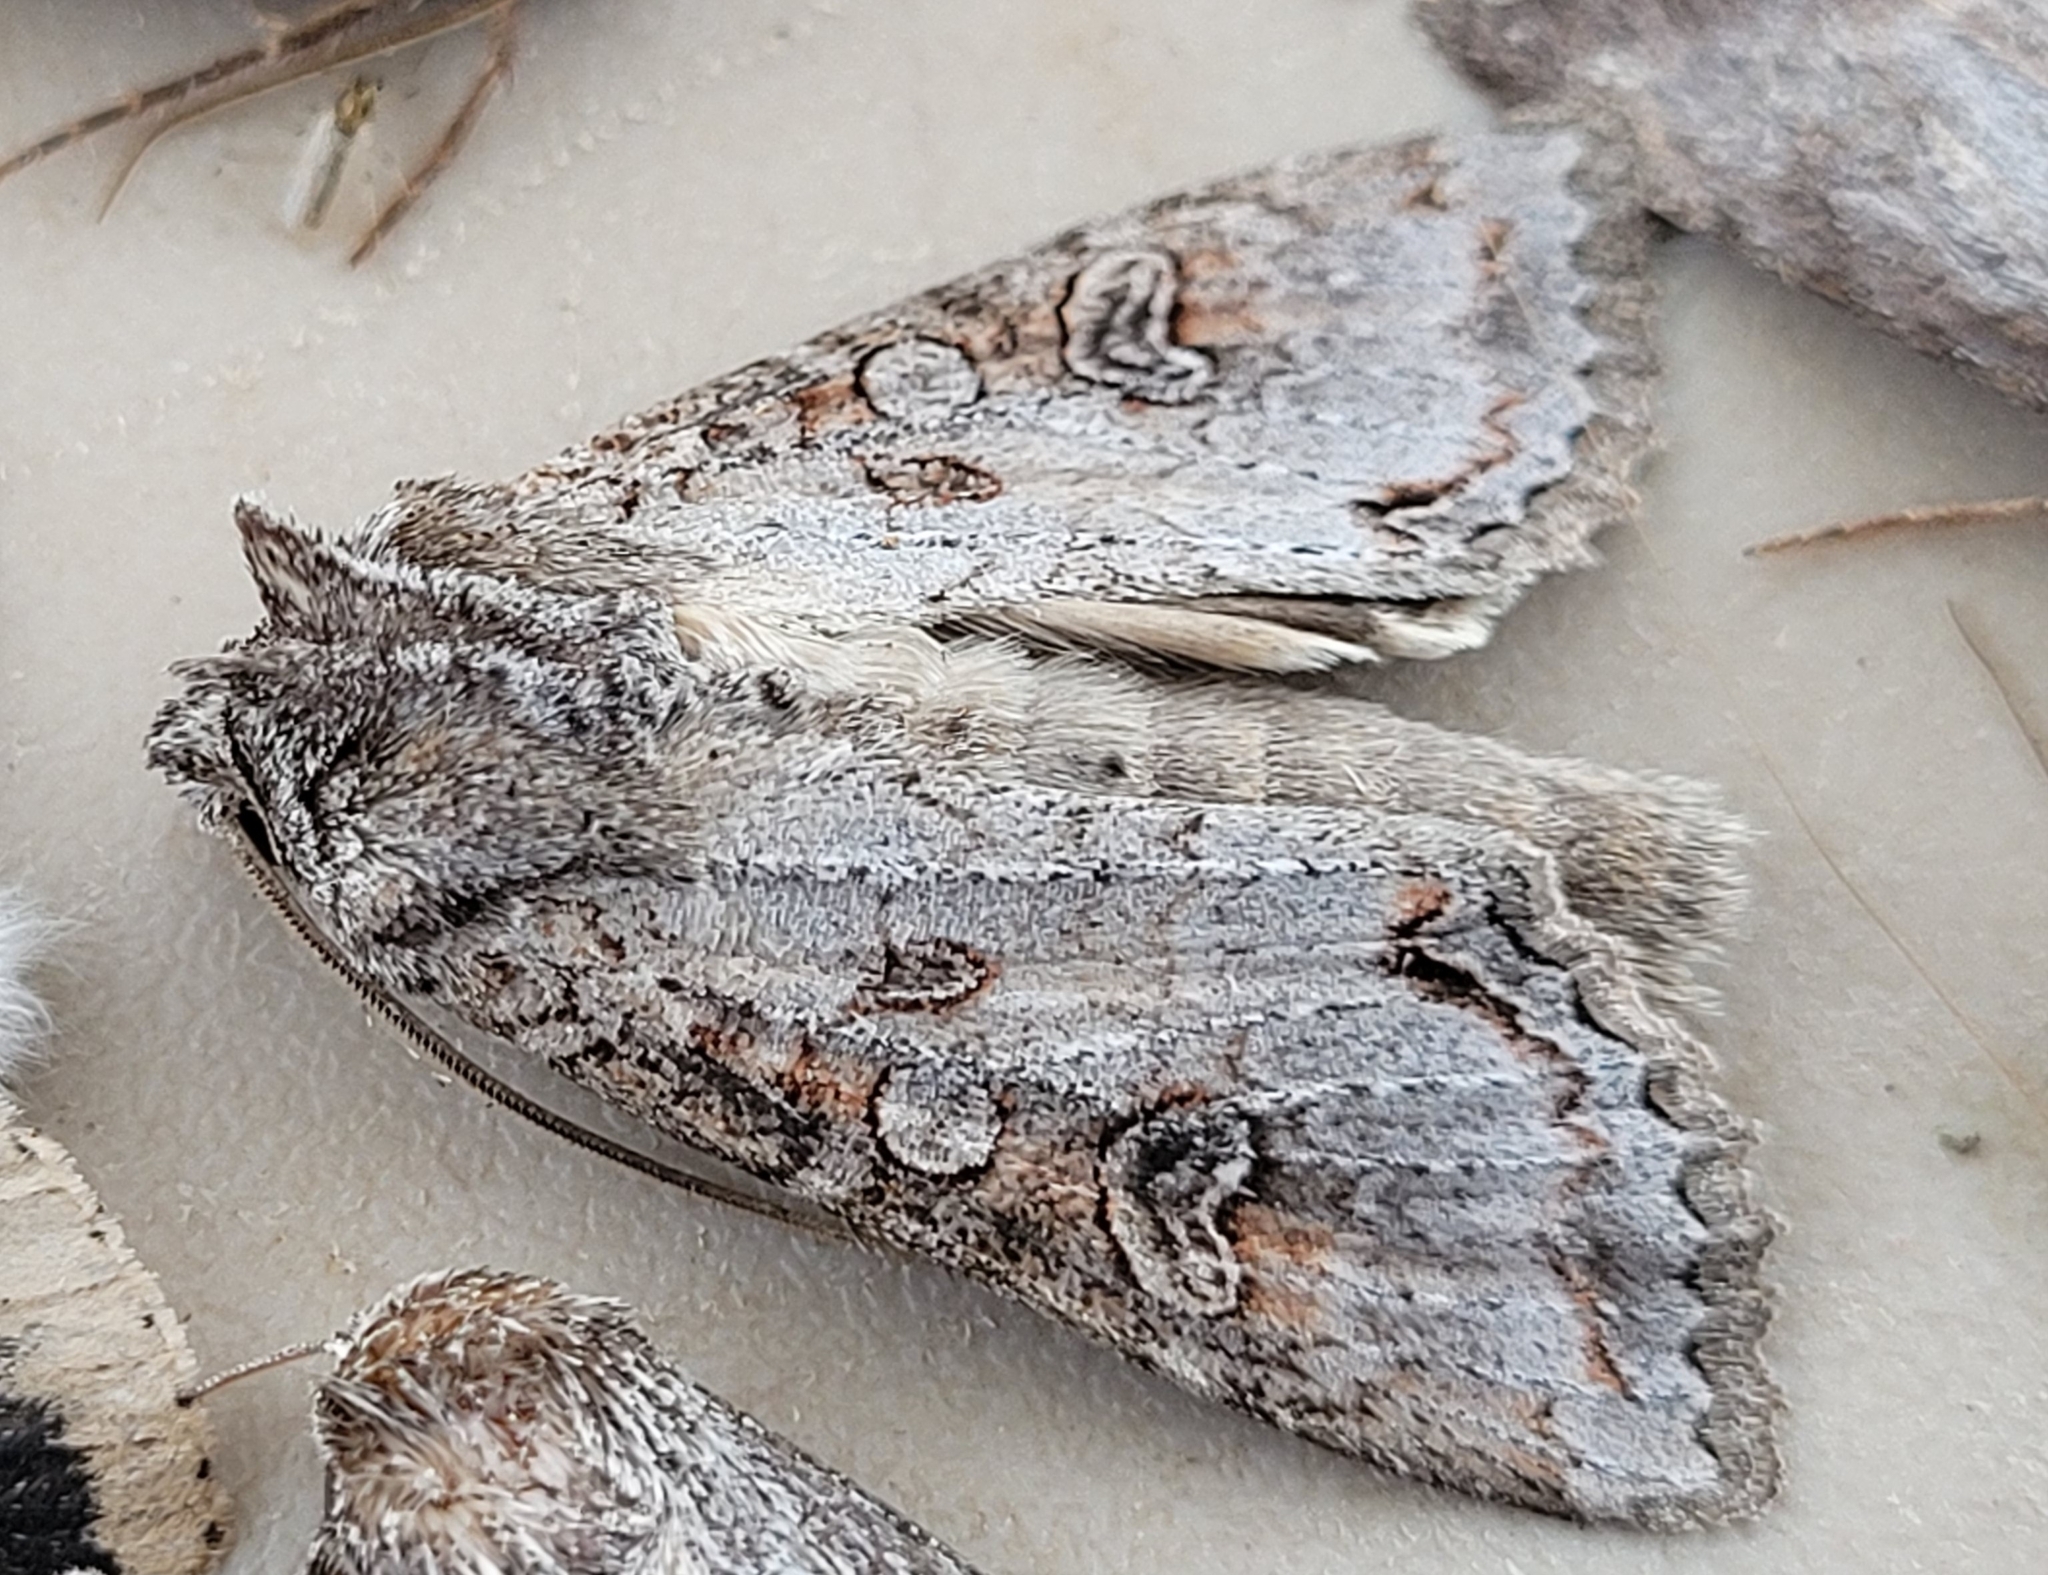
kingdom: Animalia
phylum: Arthropoda
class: Insecta
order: Lepidoptera
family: Noctuidae
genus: Polia
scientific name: Polia purpurissata
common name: Purple arches moth
